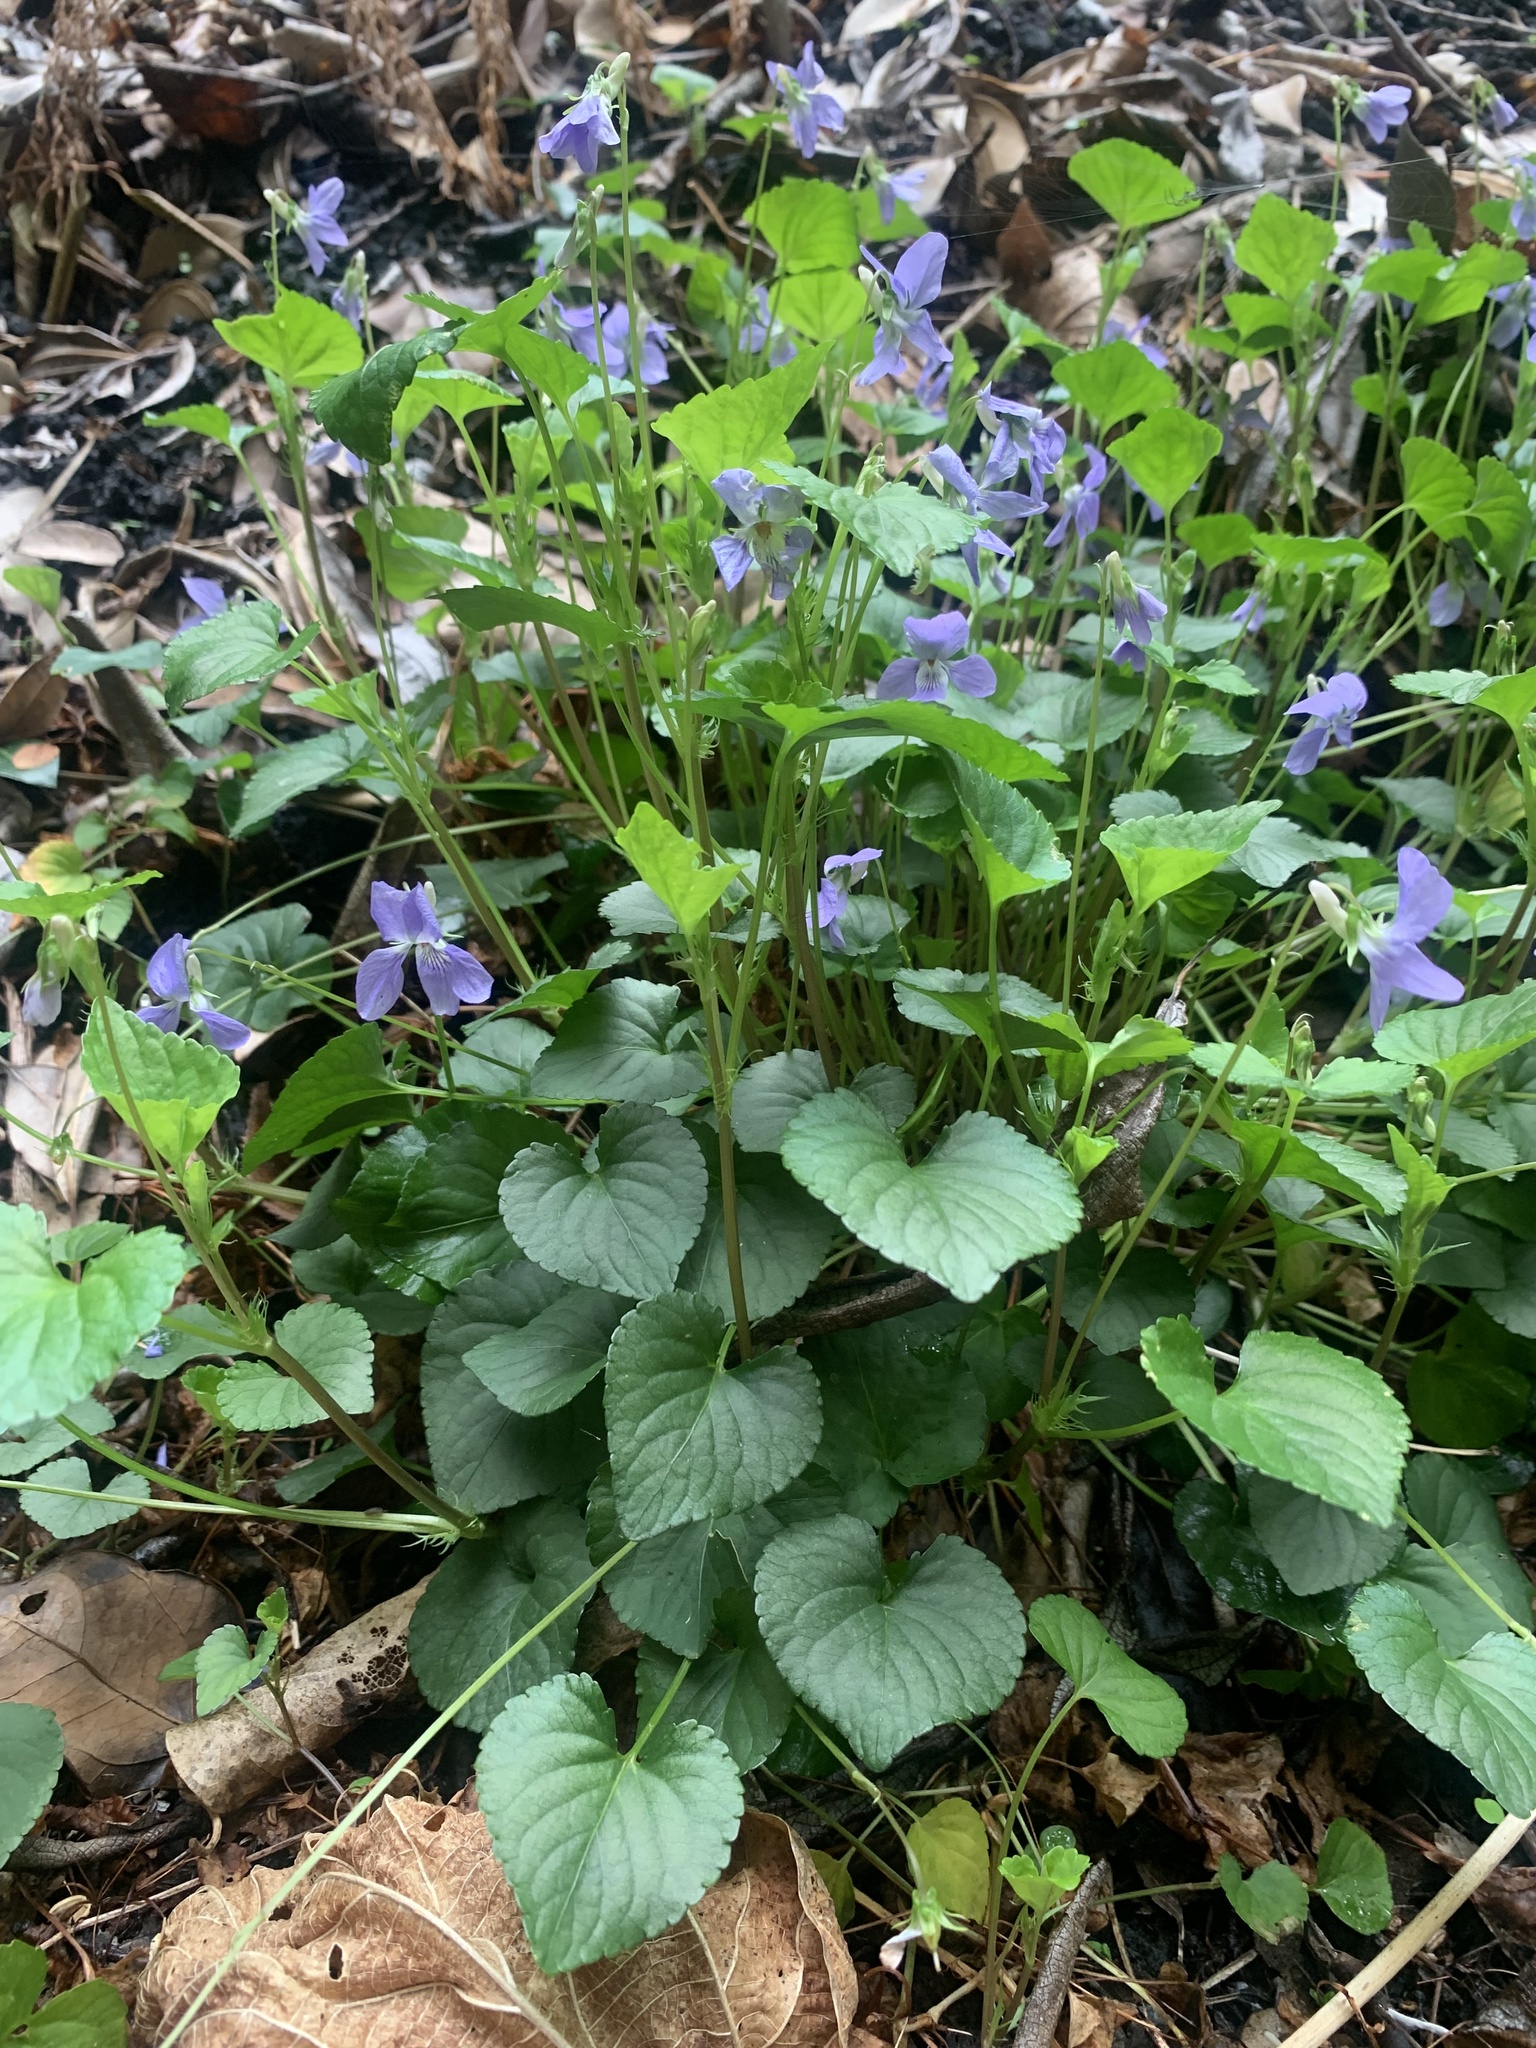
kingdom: Plantae
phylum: Tracheophyta
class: Magnoliopsida
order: Malpighiales
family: Violaceae
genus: Viola
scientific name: Viola grypoceras
